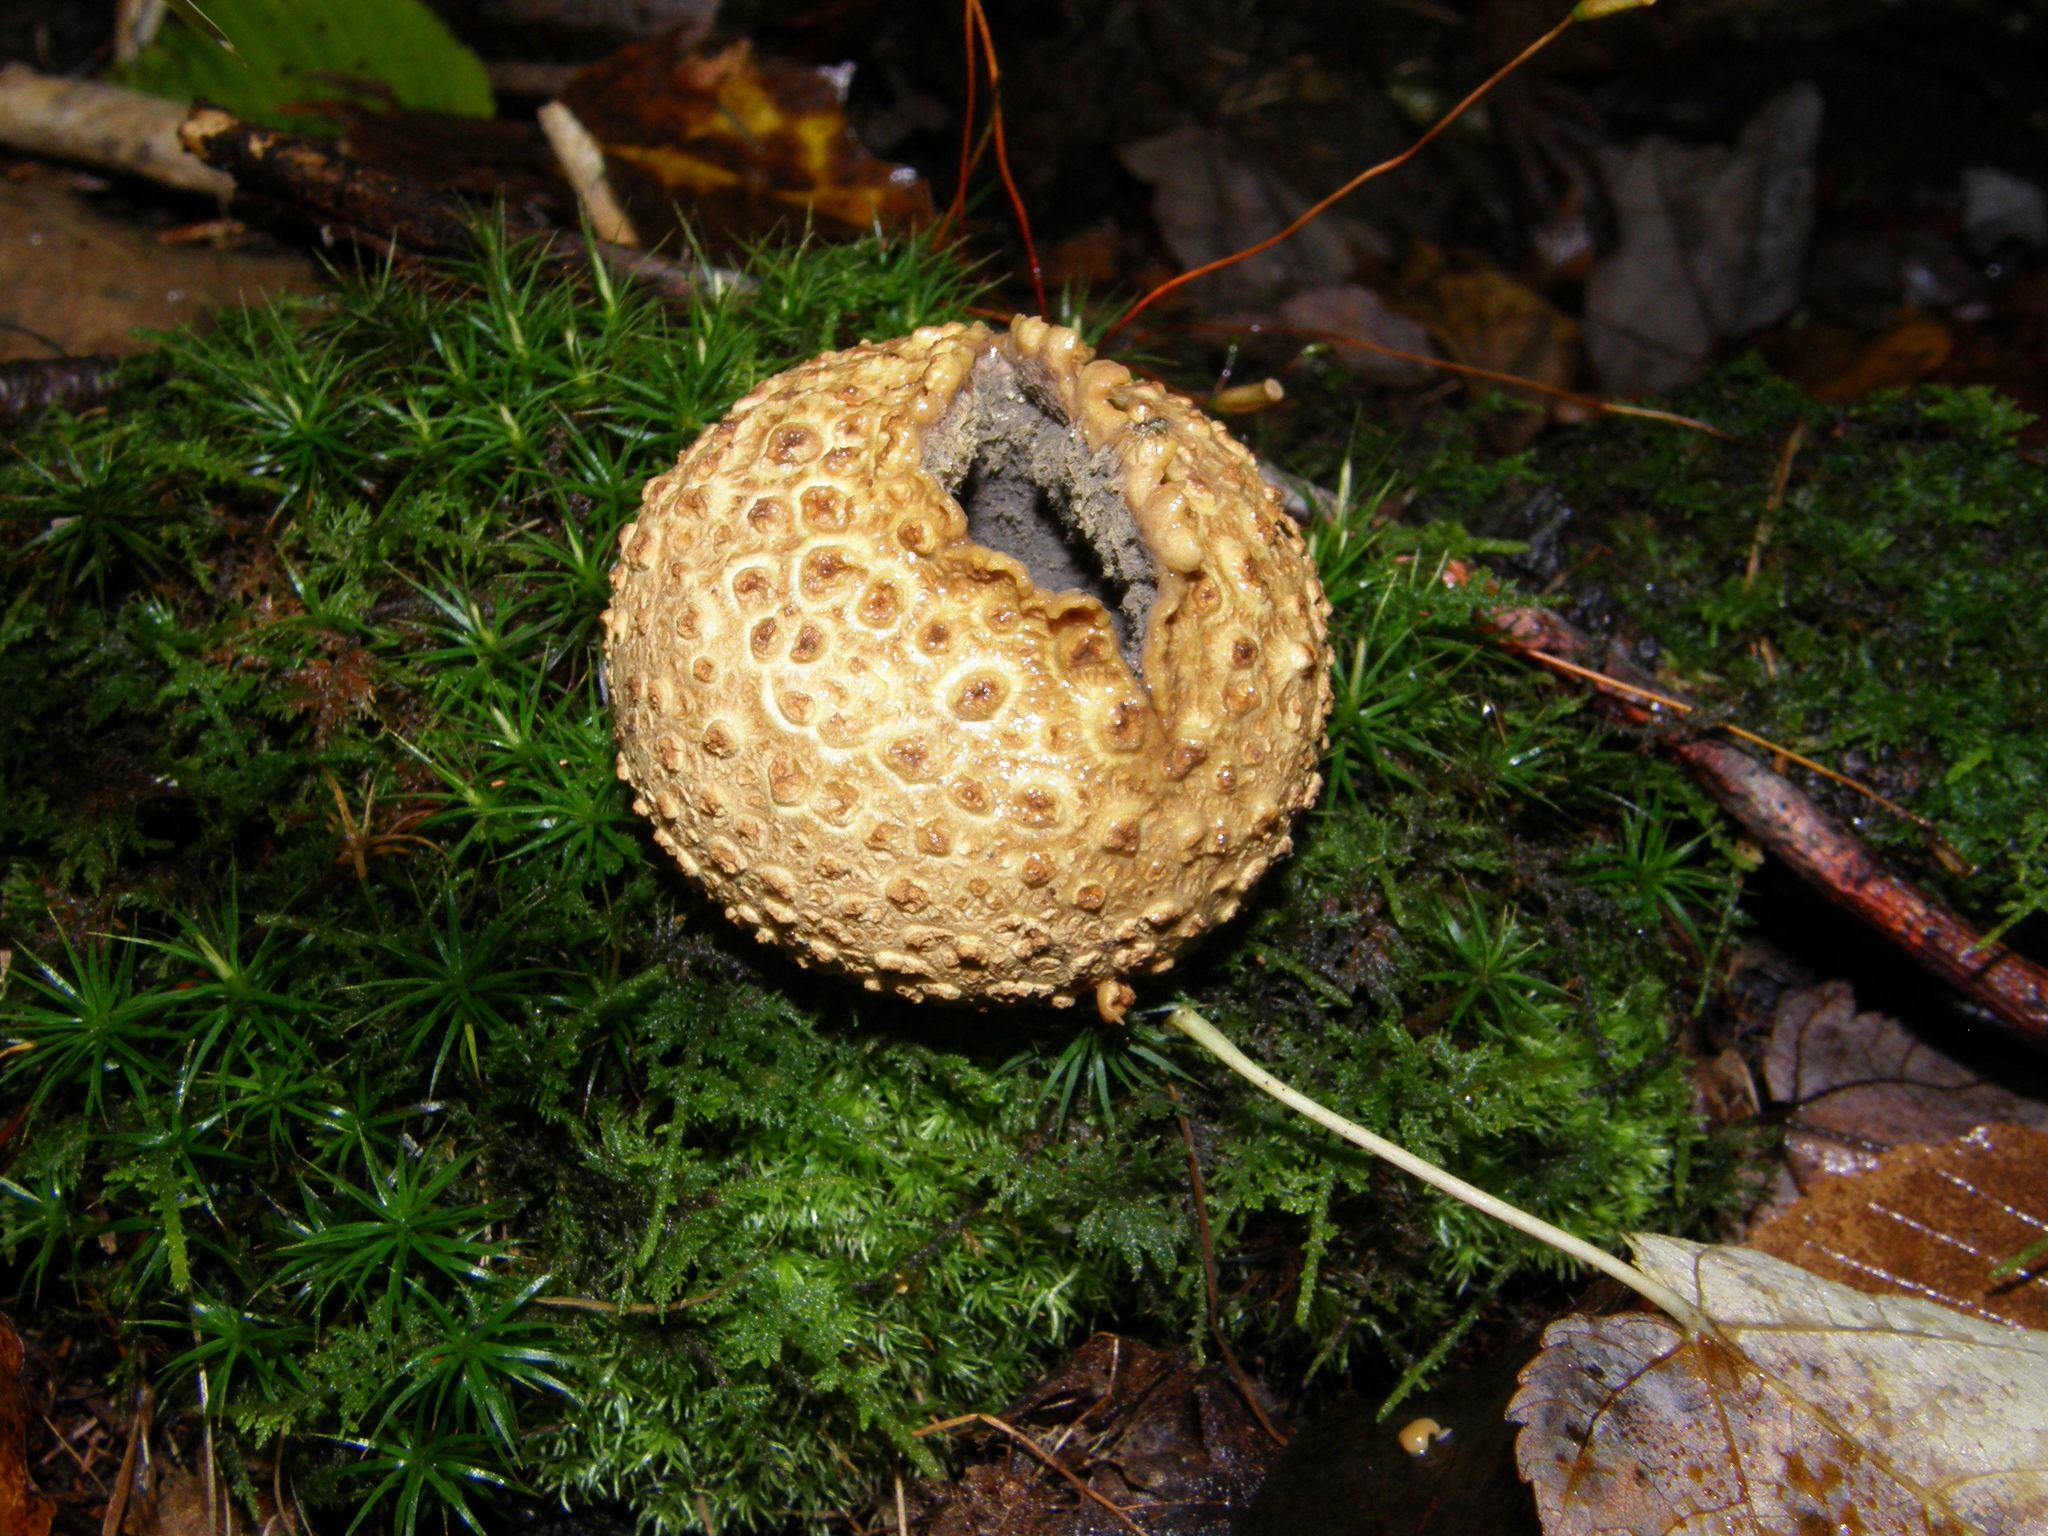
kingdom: Fungi
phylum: Basidiomycota
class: Agaricomycetes
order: Boletales
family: Sclerodermataceae
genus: Scleroderma
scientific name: Scleroderma citrinum
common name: Common earthball
